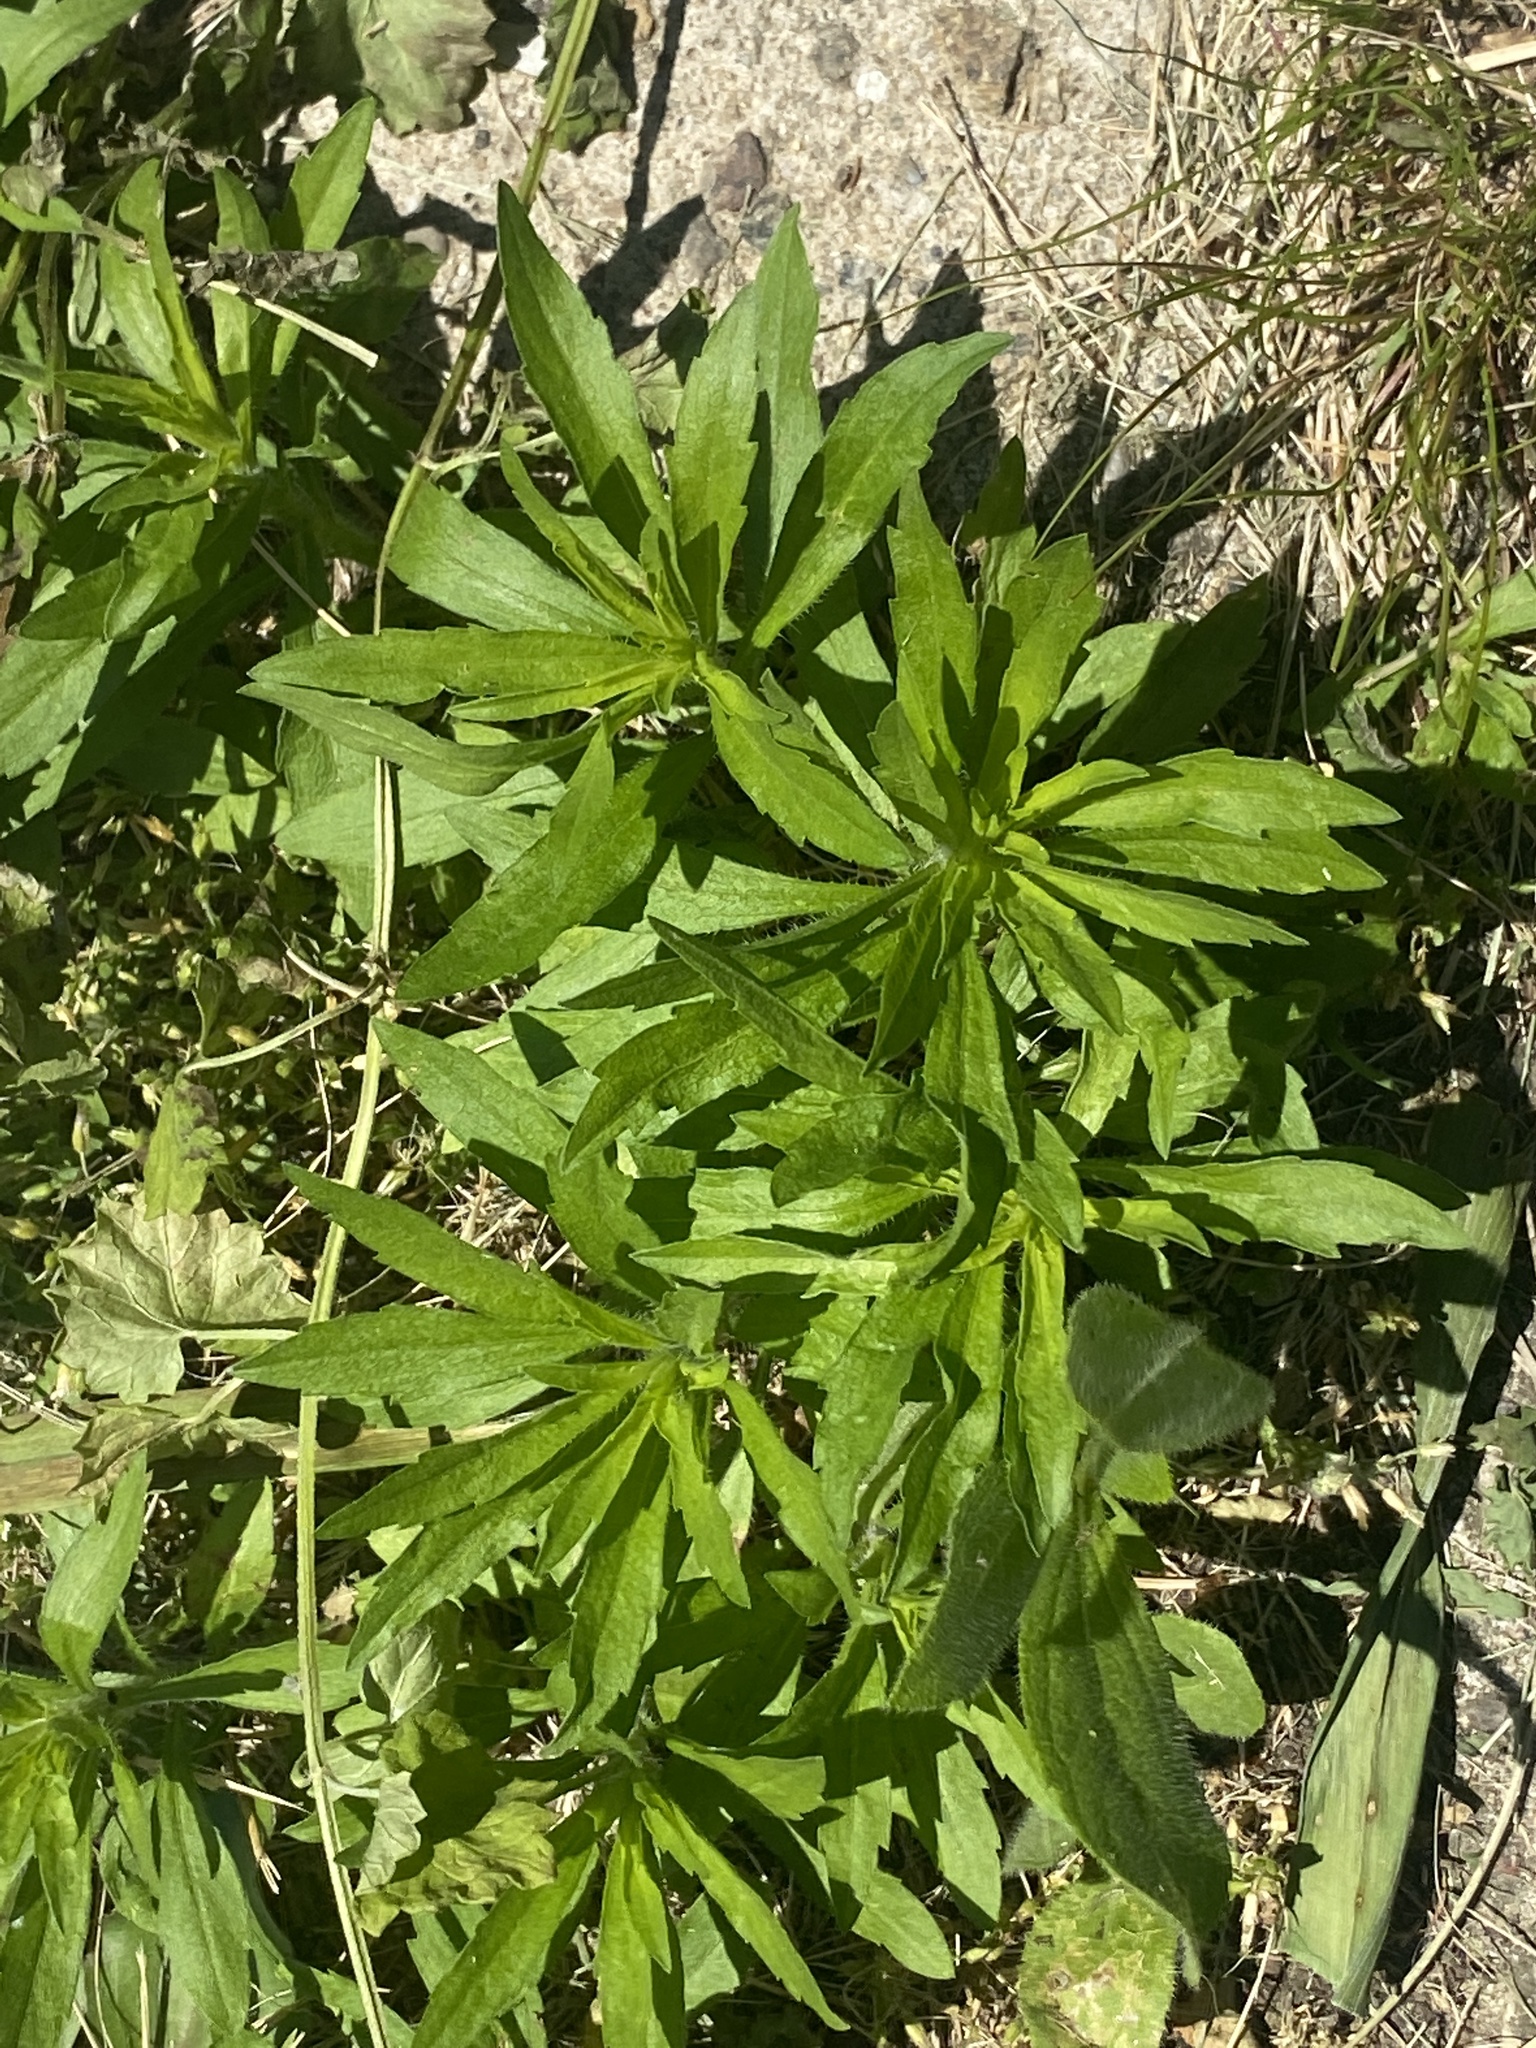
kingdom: Plantae
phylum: Tracheophyta
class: Magnoliopsida
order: Asterales
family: Asteraceae
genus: Erigeron
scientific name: Erigeron canadensis
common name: Canadian fleabane
